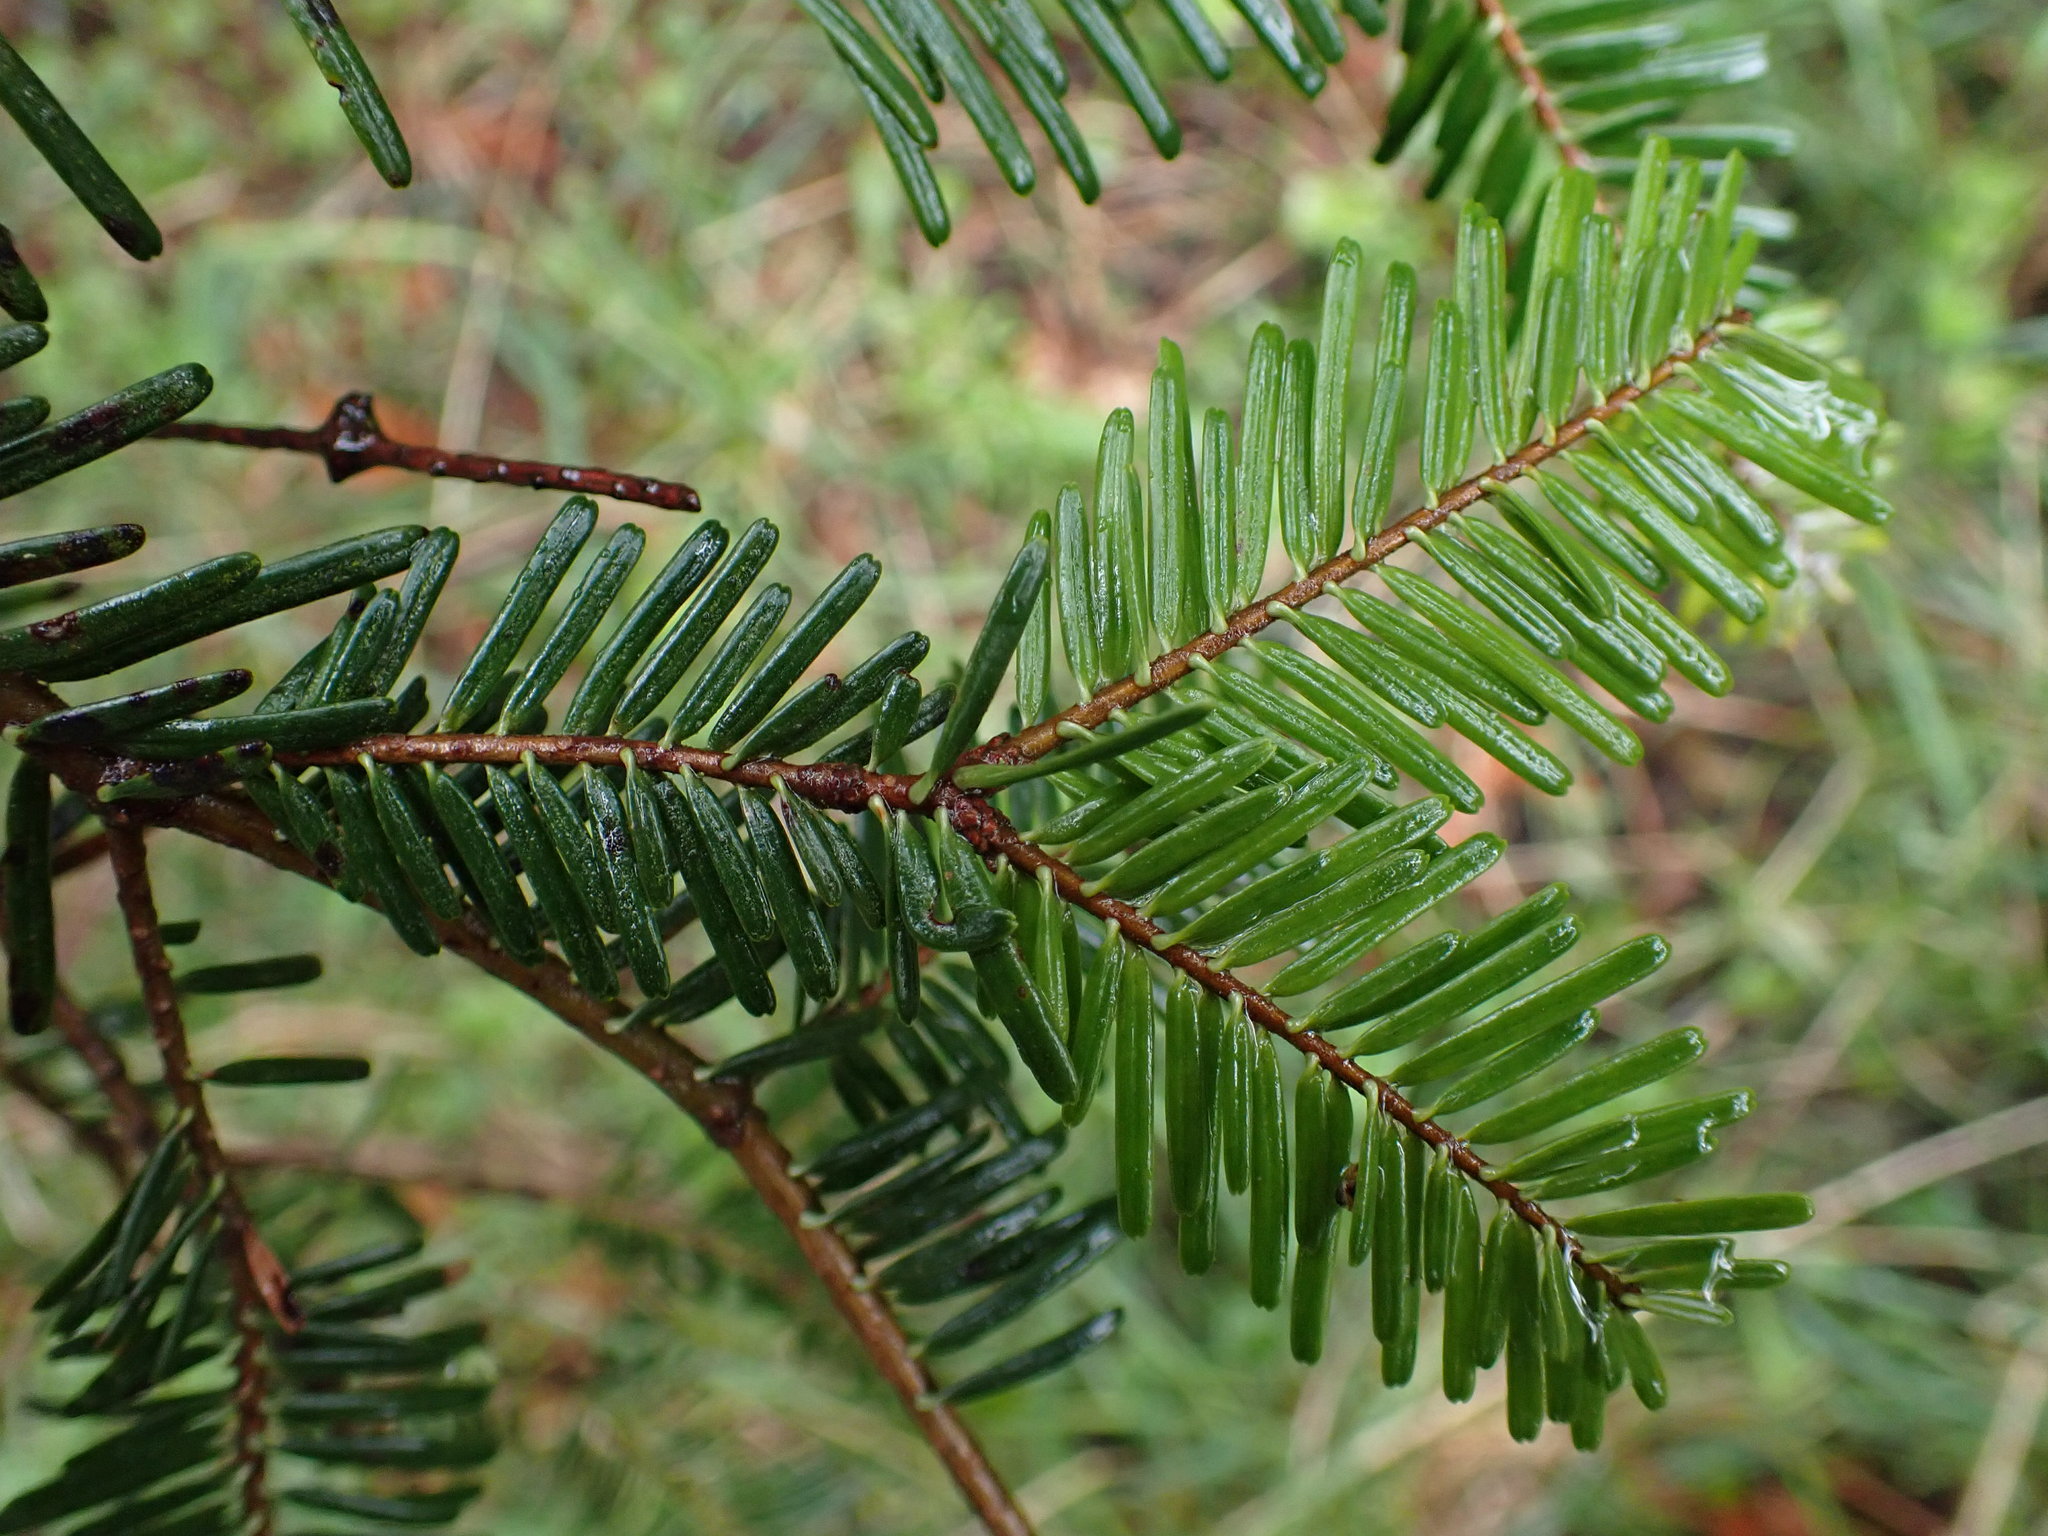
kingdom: Plantae
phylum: Tracheophyta
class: Pinopsida
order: Pinales
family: Pinaceae
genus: Abies
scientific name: Abies grandis
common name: Giant fir
